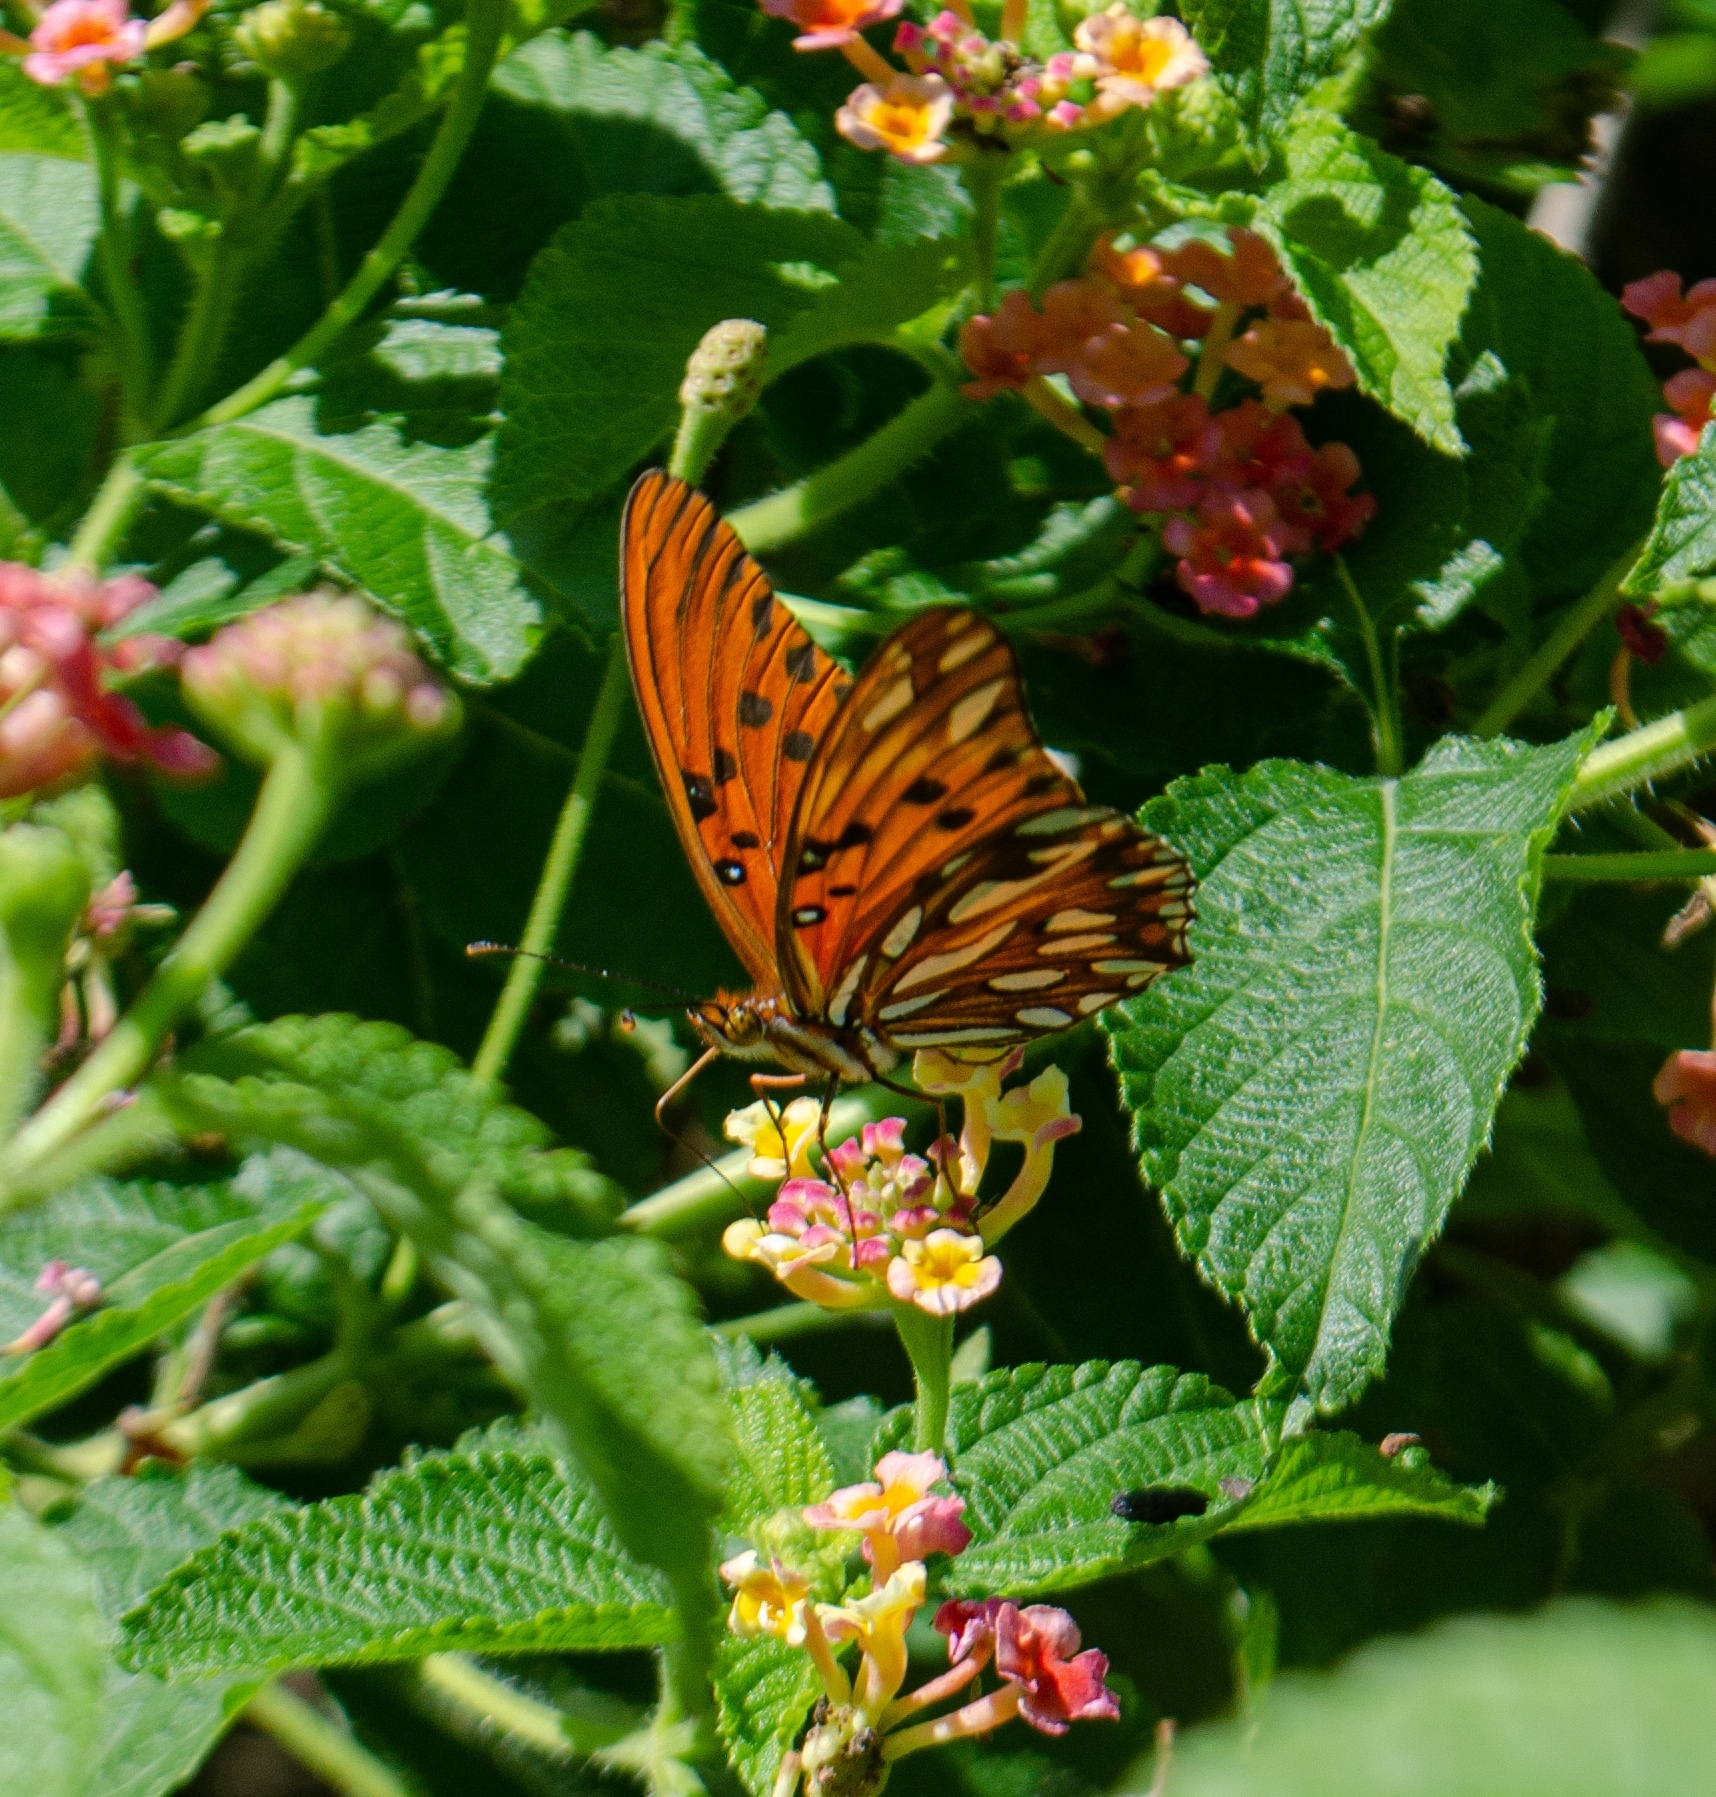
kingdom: Animalia
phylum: Arthropoda
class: Insecta
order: Lepidoptera
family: Nymphalidae
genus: Dione
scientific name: Dione vanillae
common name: Gulf fritillary
